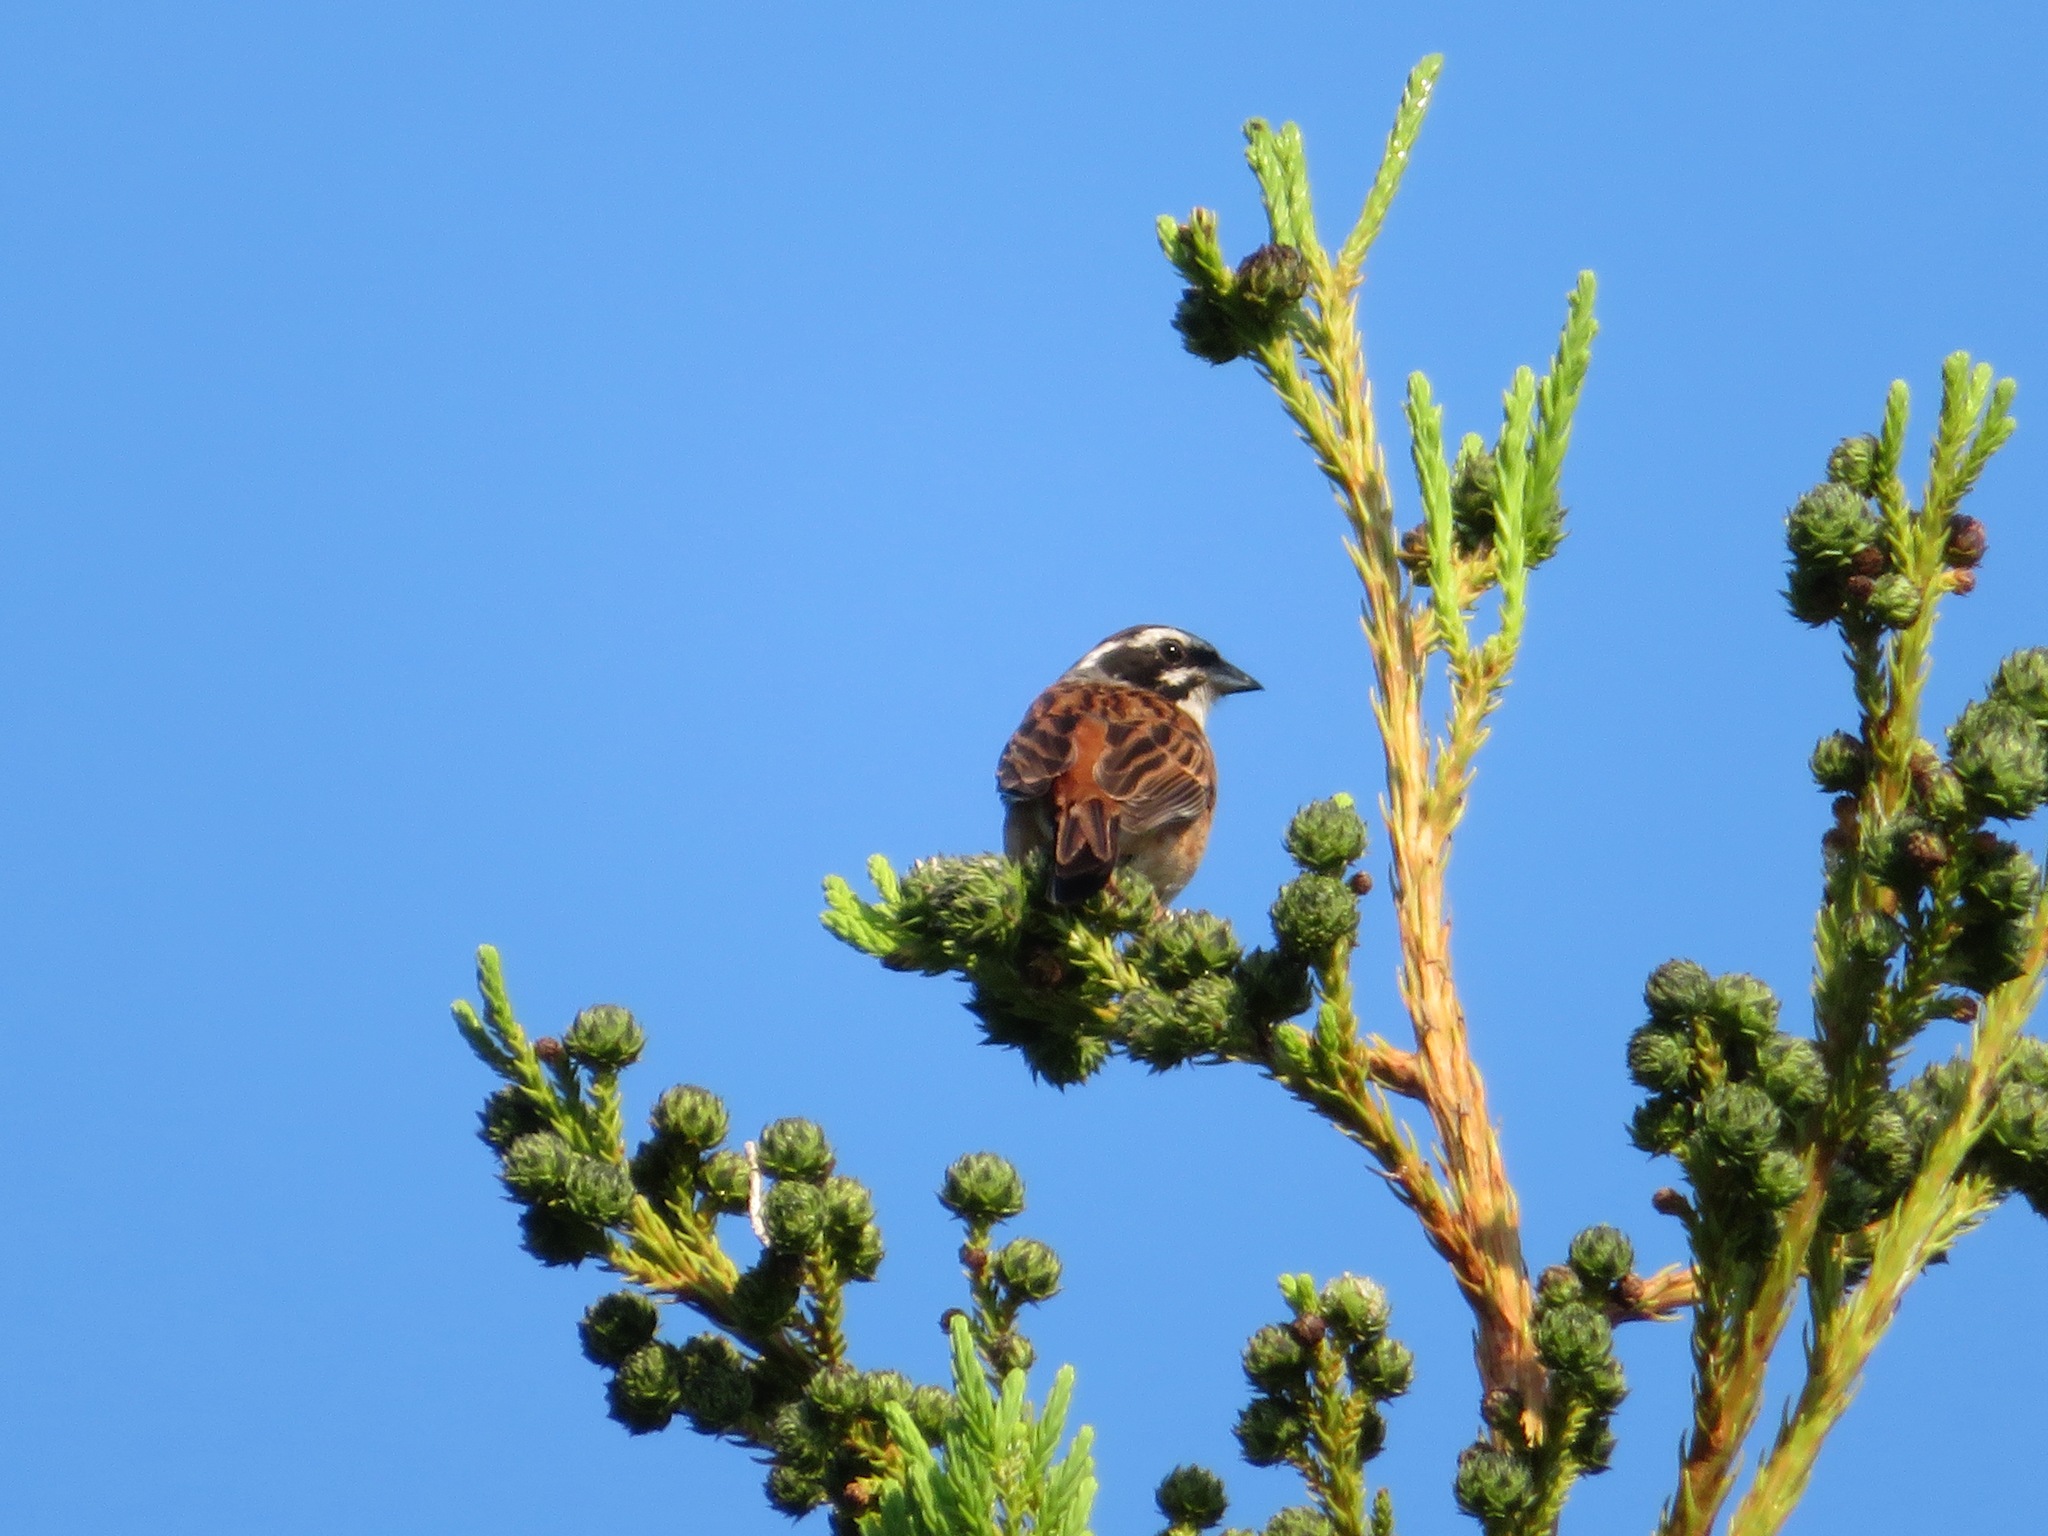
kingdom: Animalia
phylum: Chordata
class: Aves
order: Passeriformes
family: Emberizidae
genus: Emberiza
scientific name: Emberiza cioides
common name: Meadow bunting
